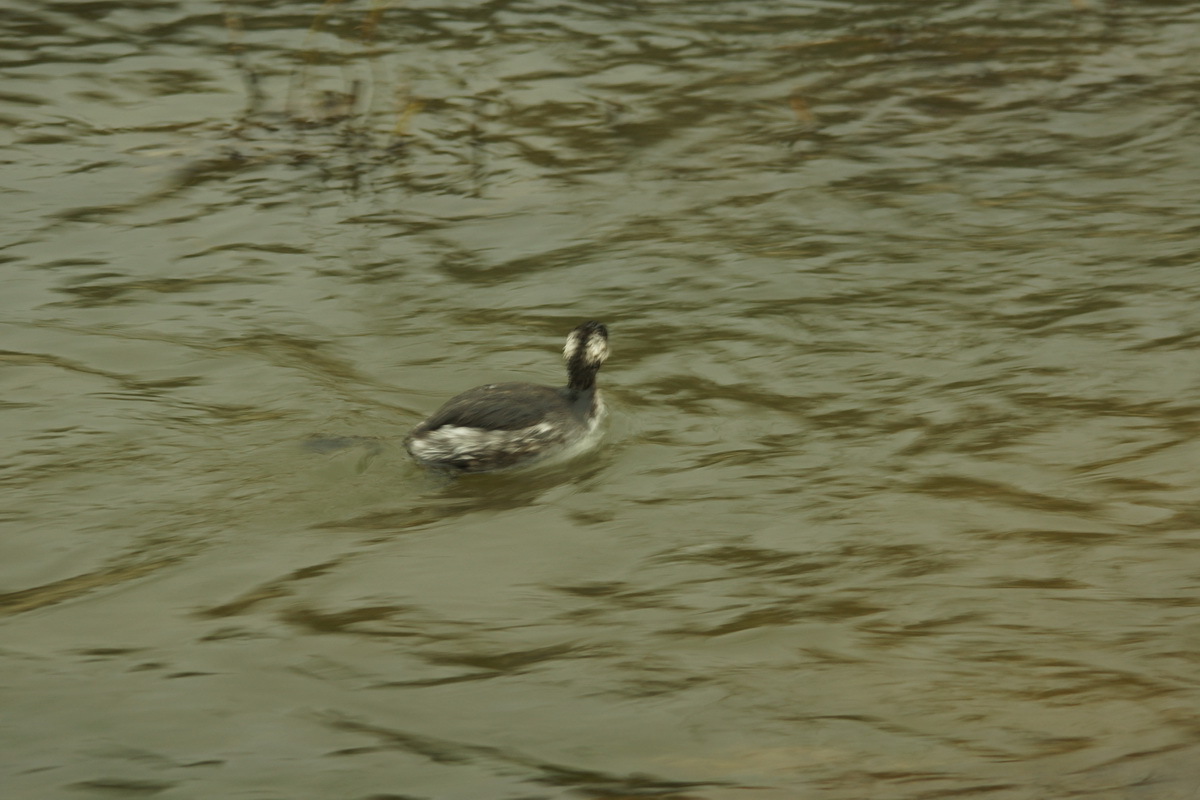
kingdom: Animalia
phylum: Chordata
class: Aves
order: Podicipediformes
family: Podicipedidae
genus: Podiceps
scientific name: Podiceps nigricollis
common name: Black-necked grebe
